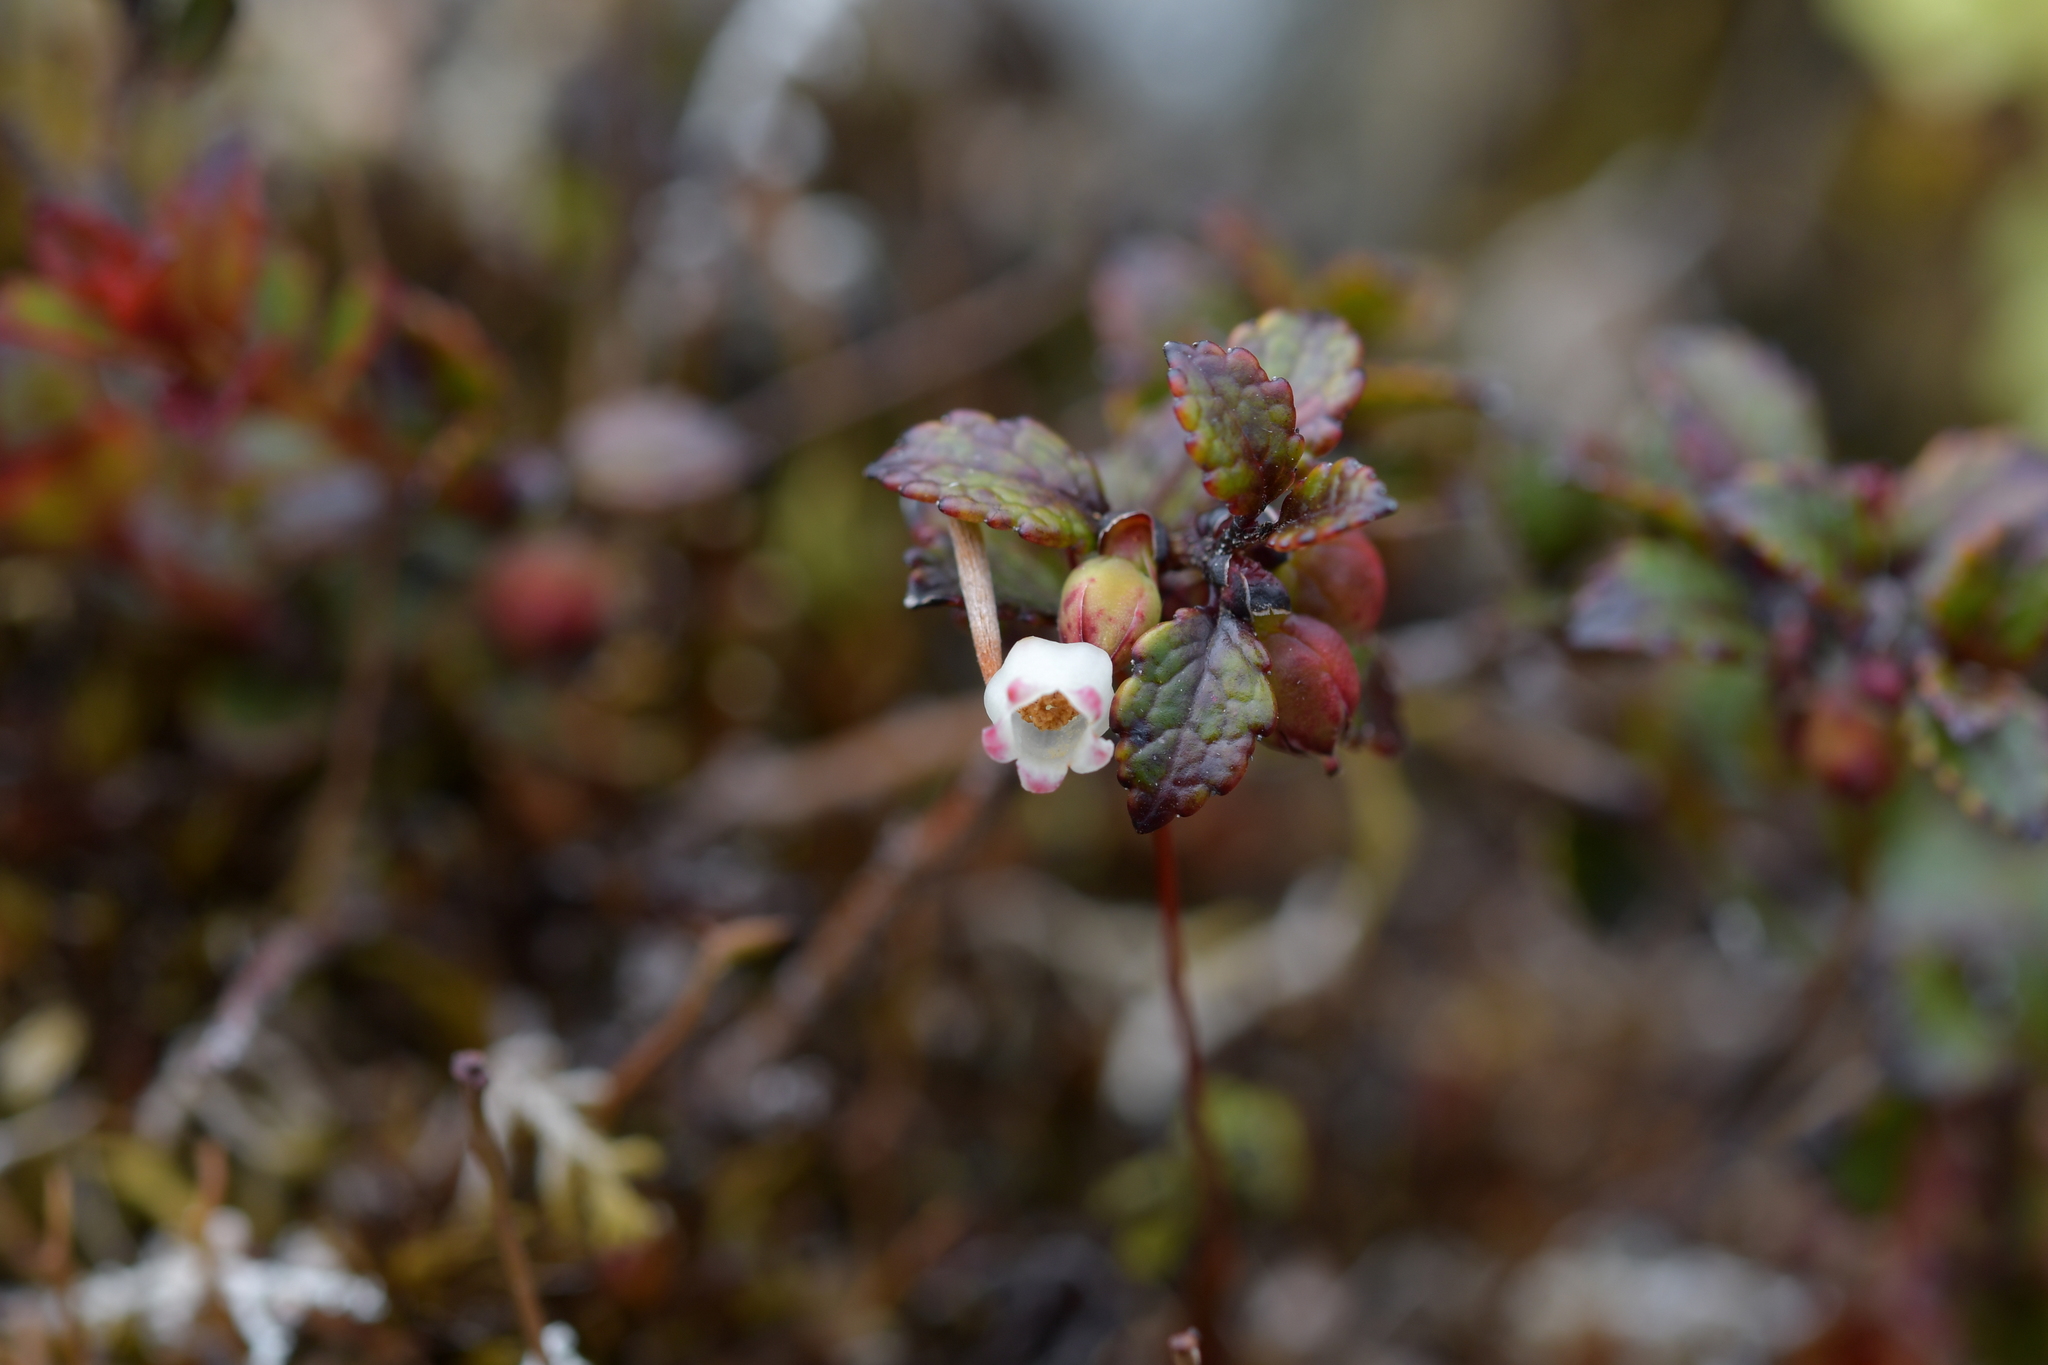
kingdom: Plantae
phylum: Tracheophyta
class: Magnoliopsida
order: Ericales
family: Ericaceae
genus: Gaultheria
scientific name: Gaultheria depressa
